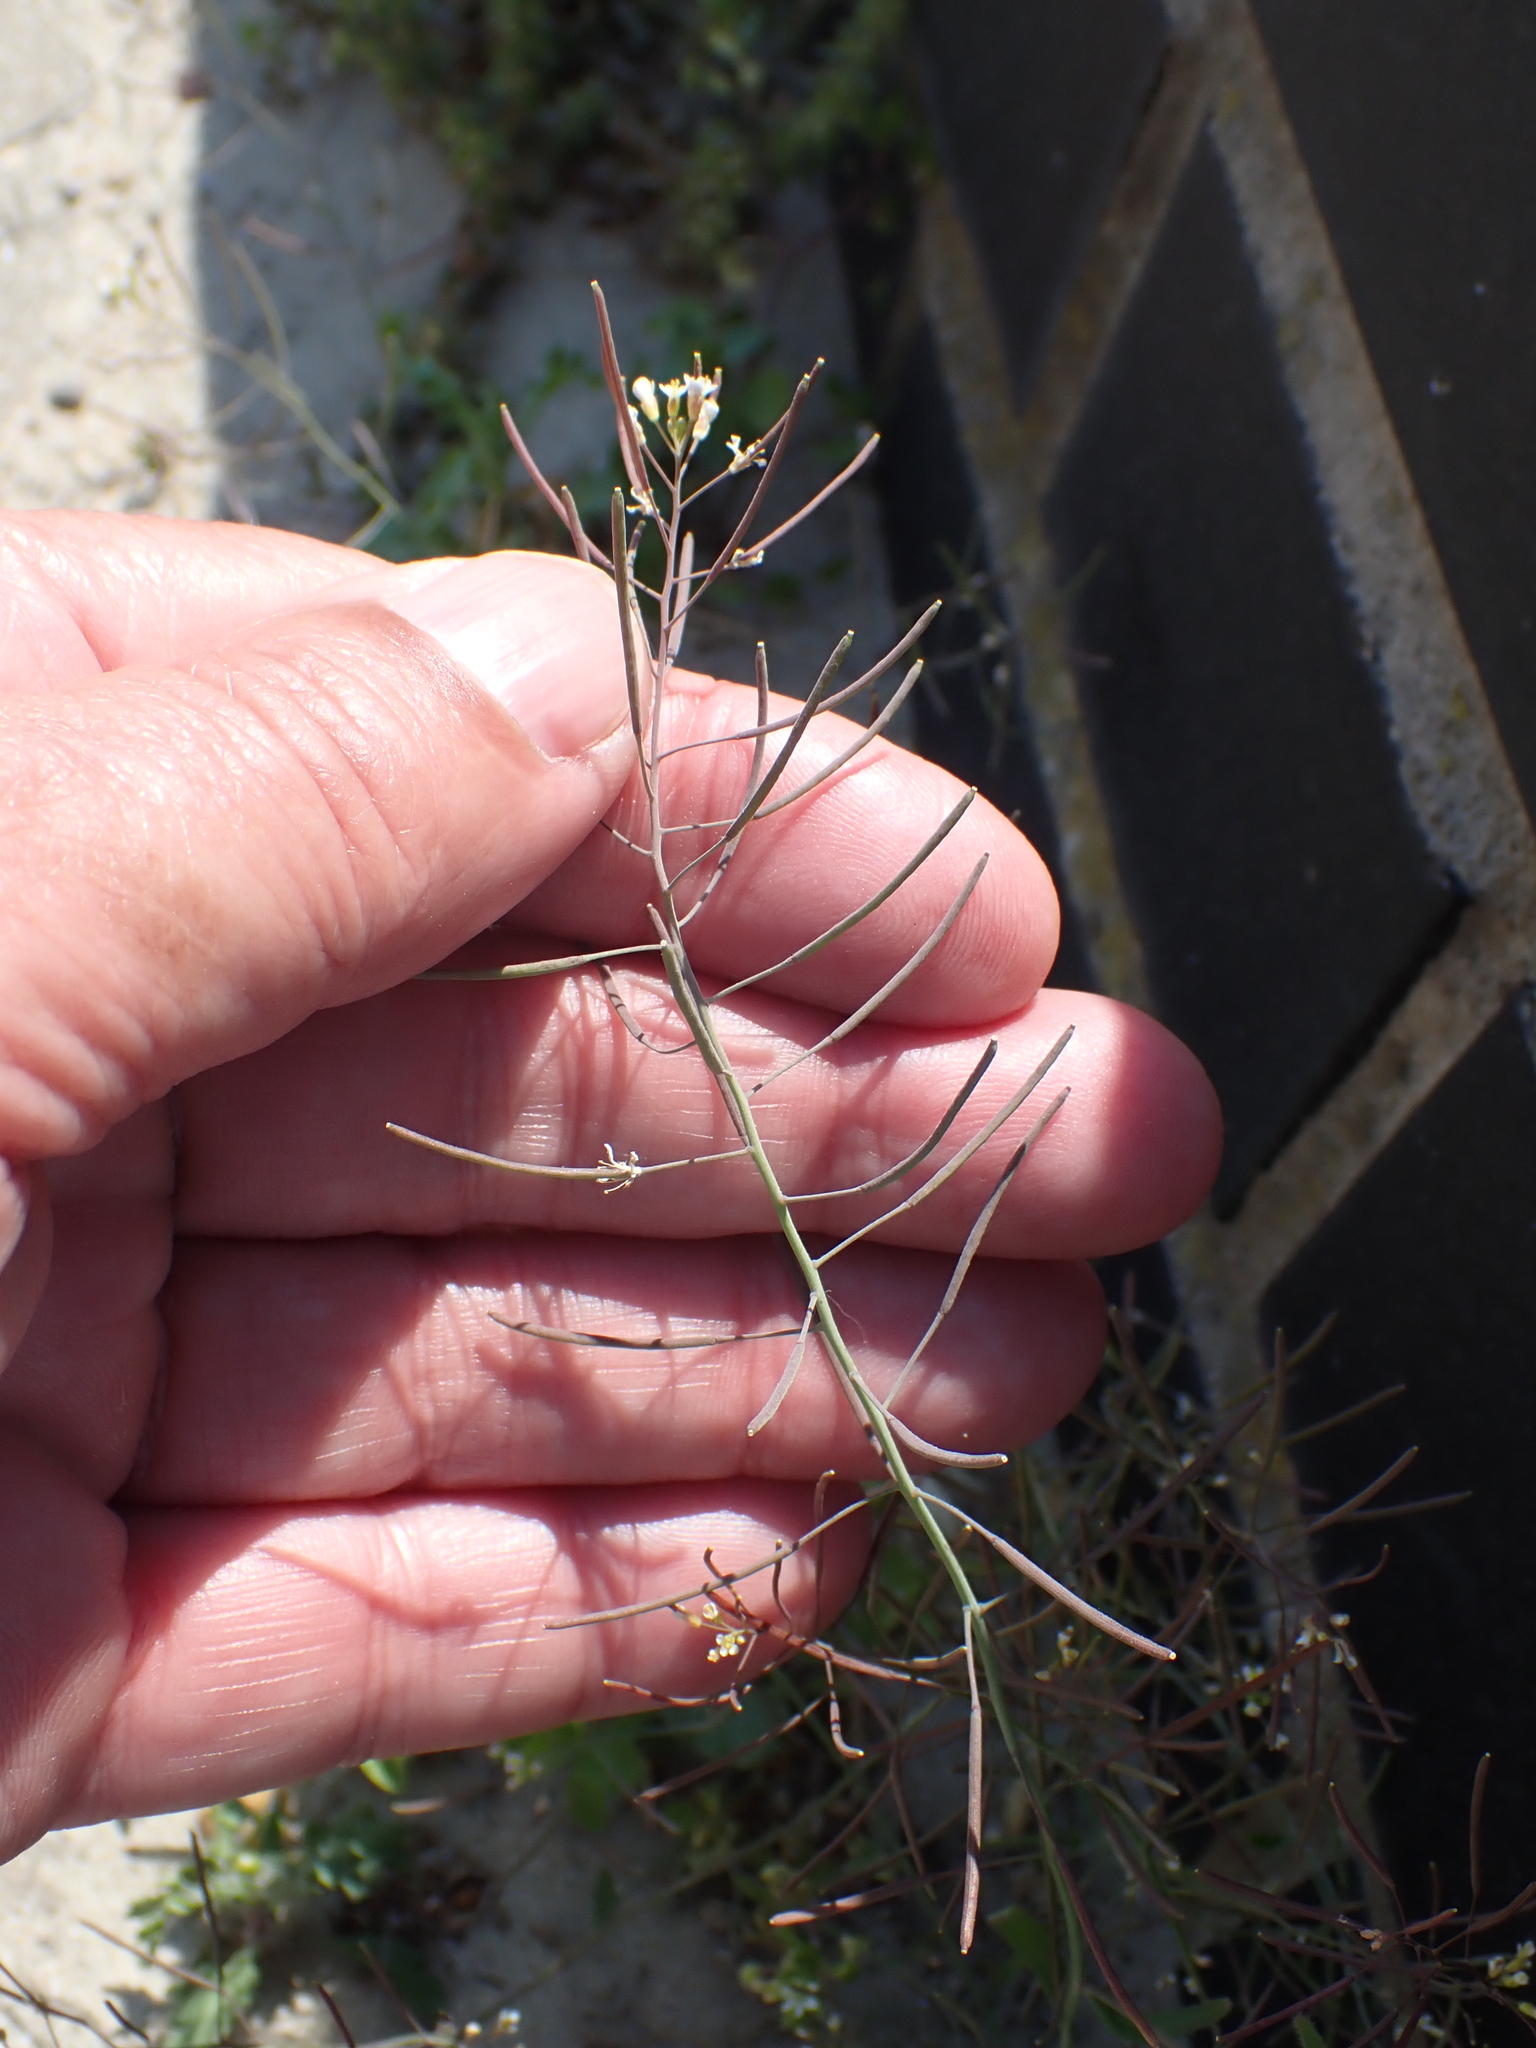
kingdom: Plantae
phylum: Tracheophyta
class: Magnoliopsida
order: Brassicales
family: Brassicaceae
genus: Arabidopsis
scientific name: Arabidopsis thaliana
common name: Thale cress
